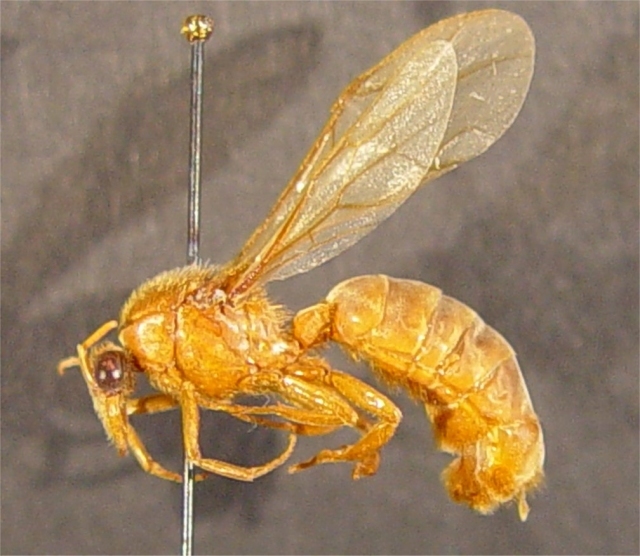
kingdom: Animalia
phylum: Arthropoda
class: Insecta
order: Hymenoptera
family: Formicidae
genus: Labidus
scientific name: Labidus praedator
